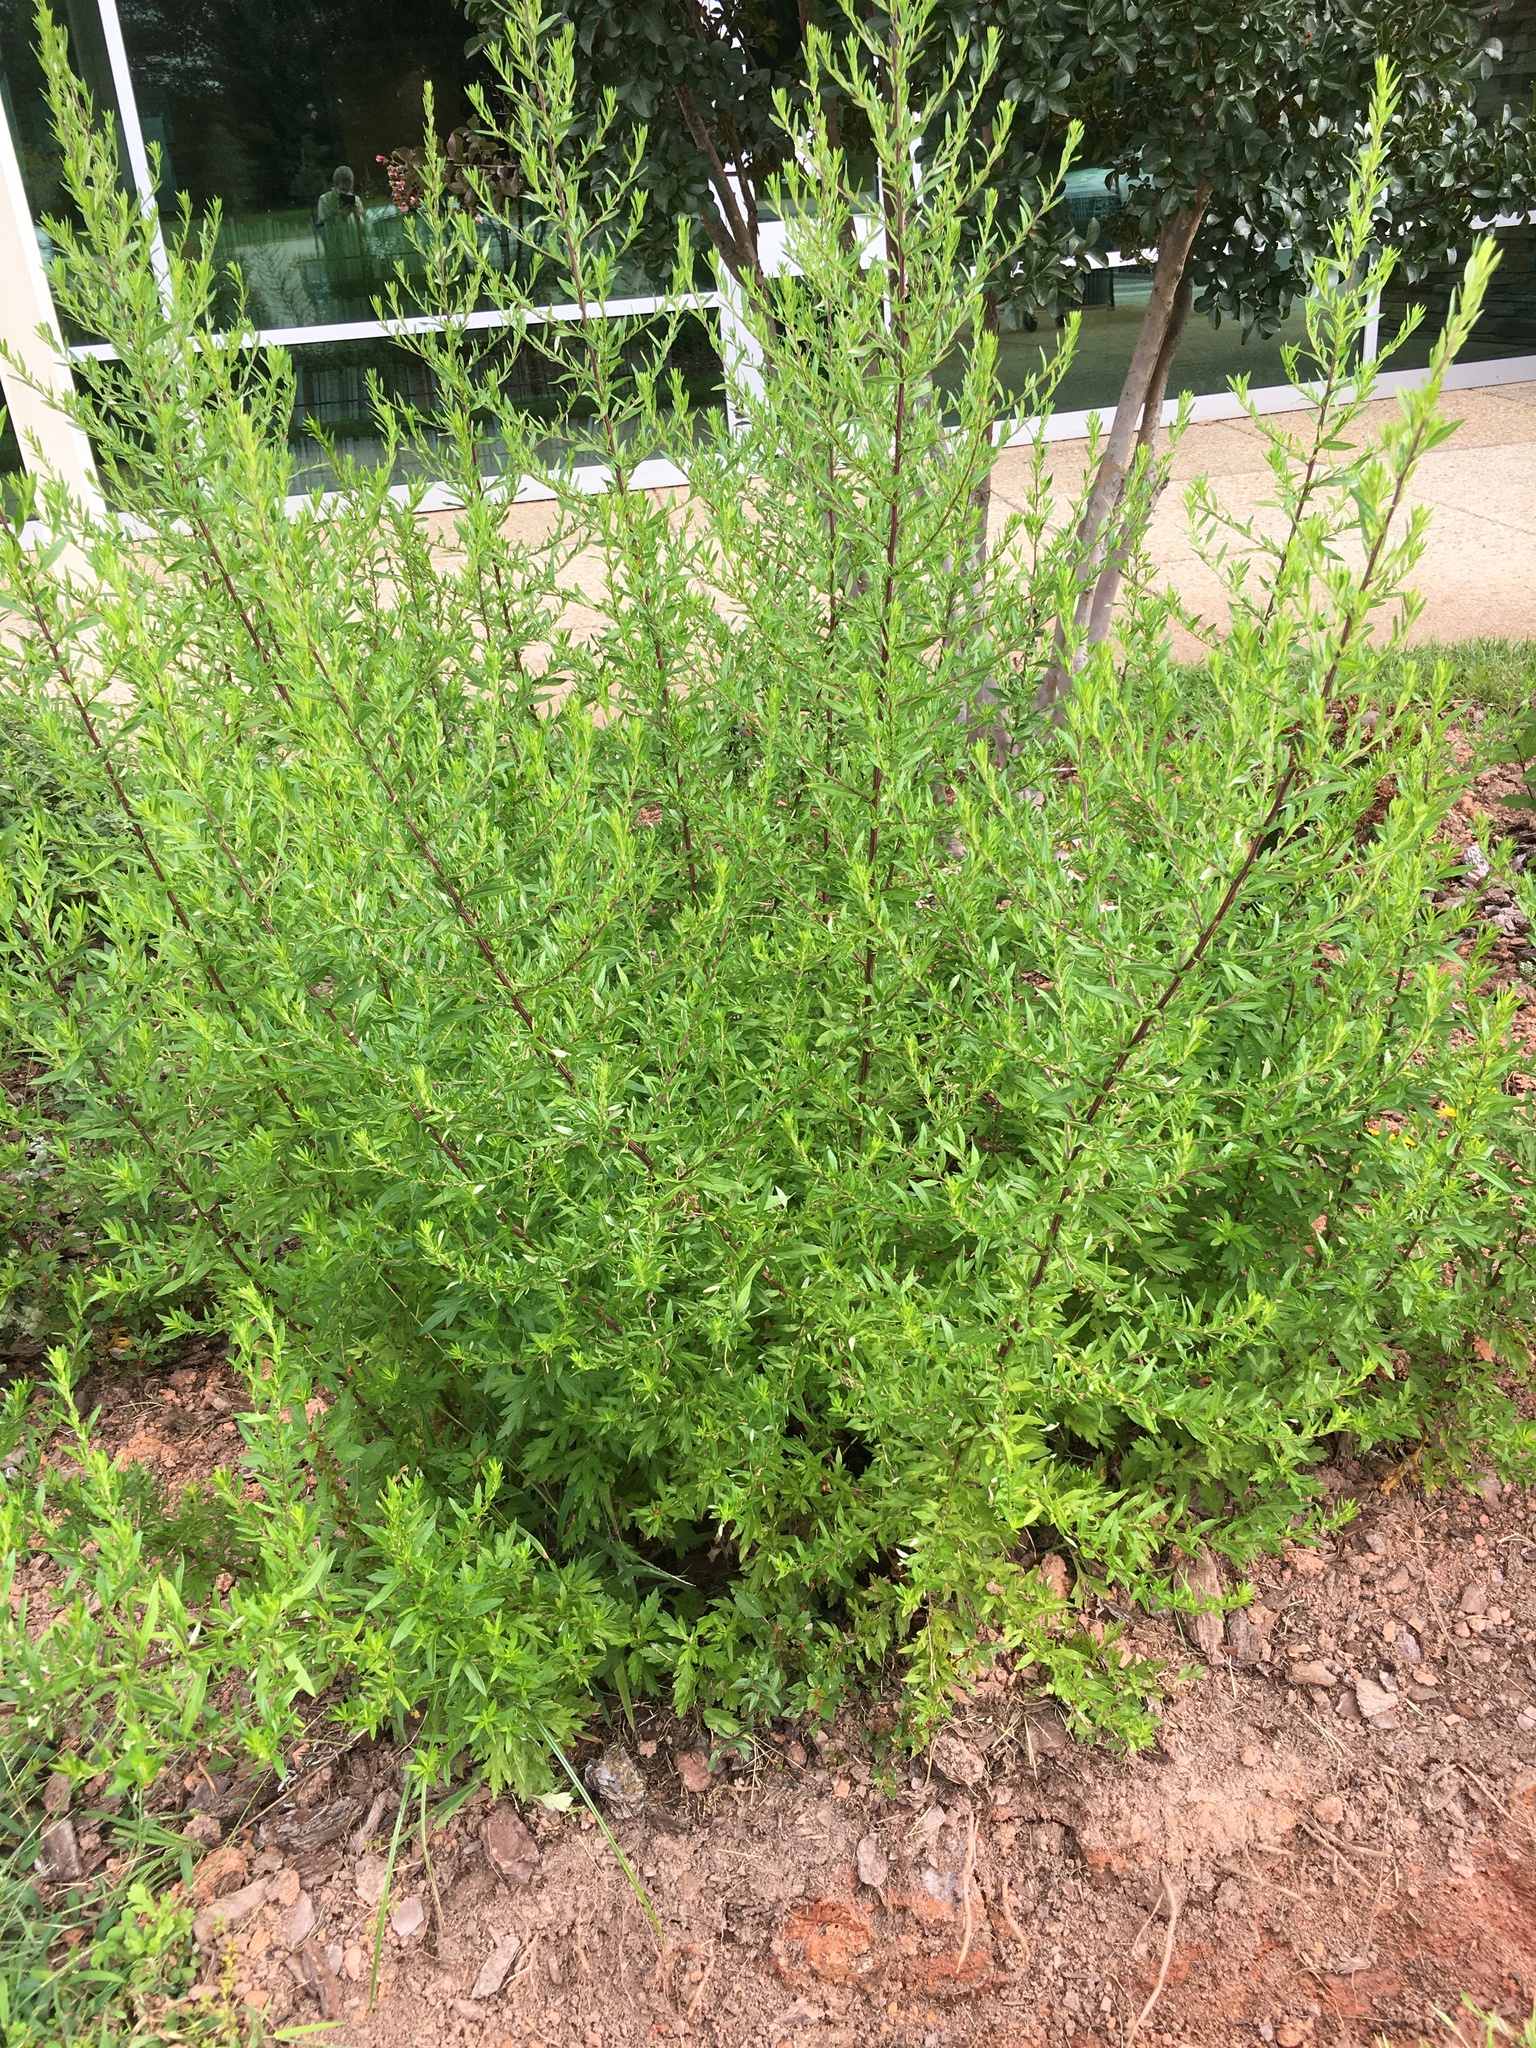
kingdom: Plantae
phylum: Tracheophyta
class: Magnoliopsida
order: Asterales
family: Asteraceae
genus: Artemisia
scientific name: Artemisia vulgaris
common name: Mugwort
